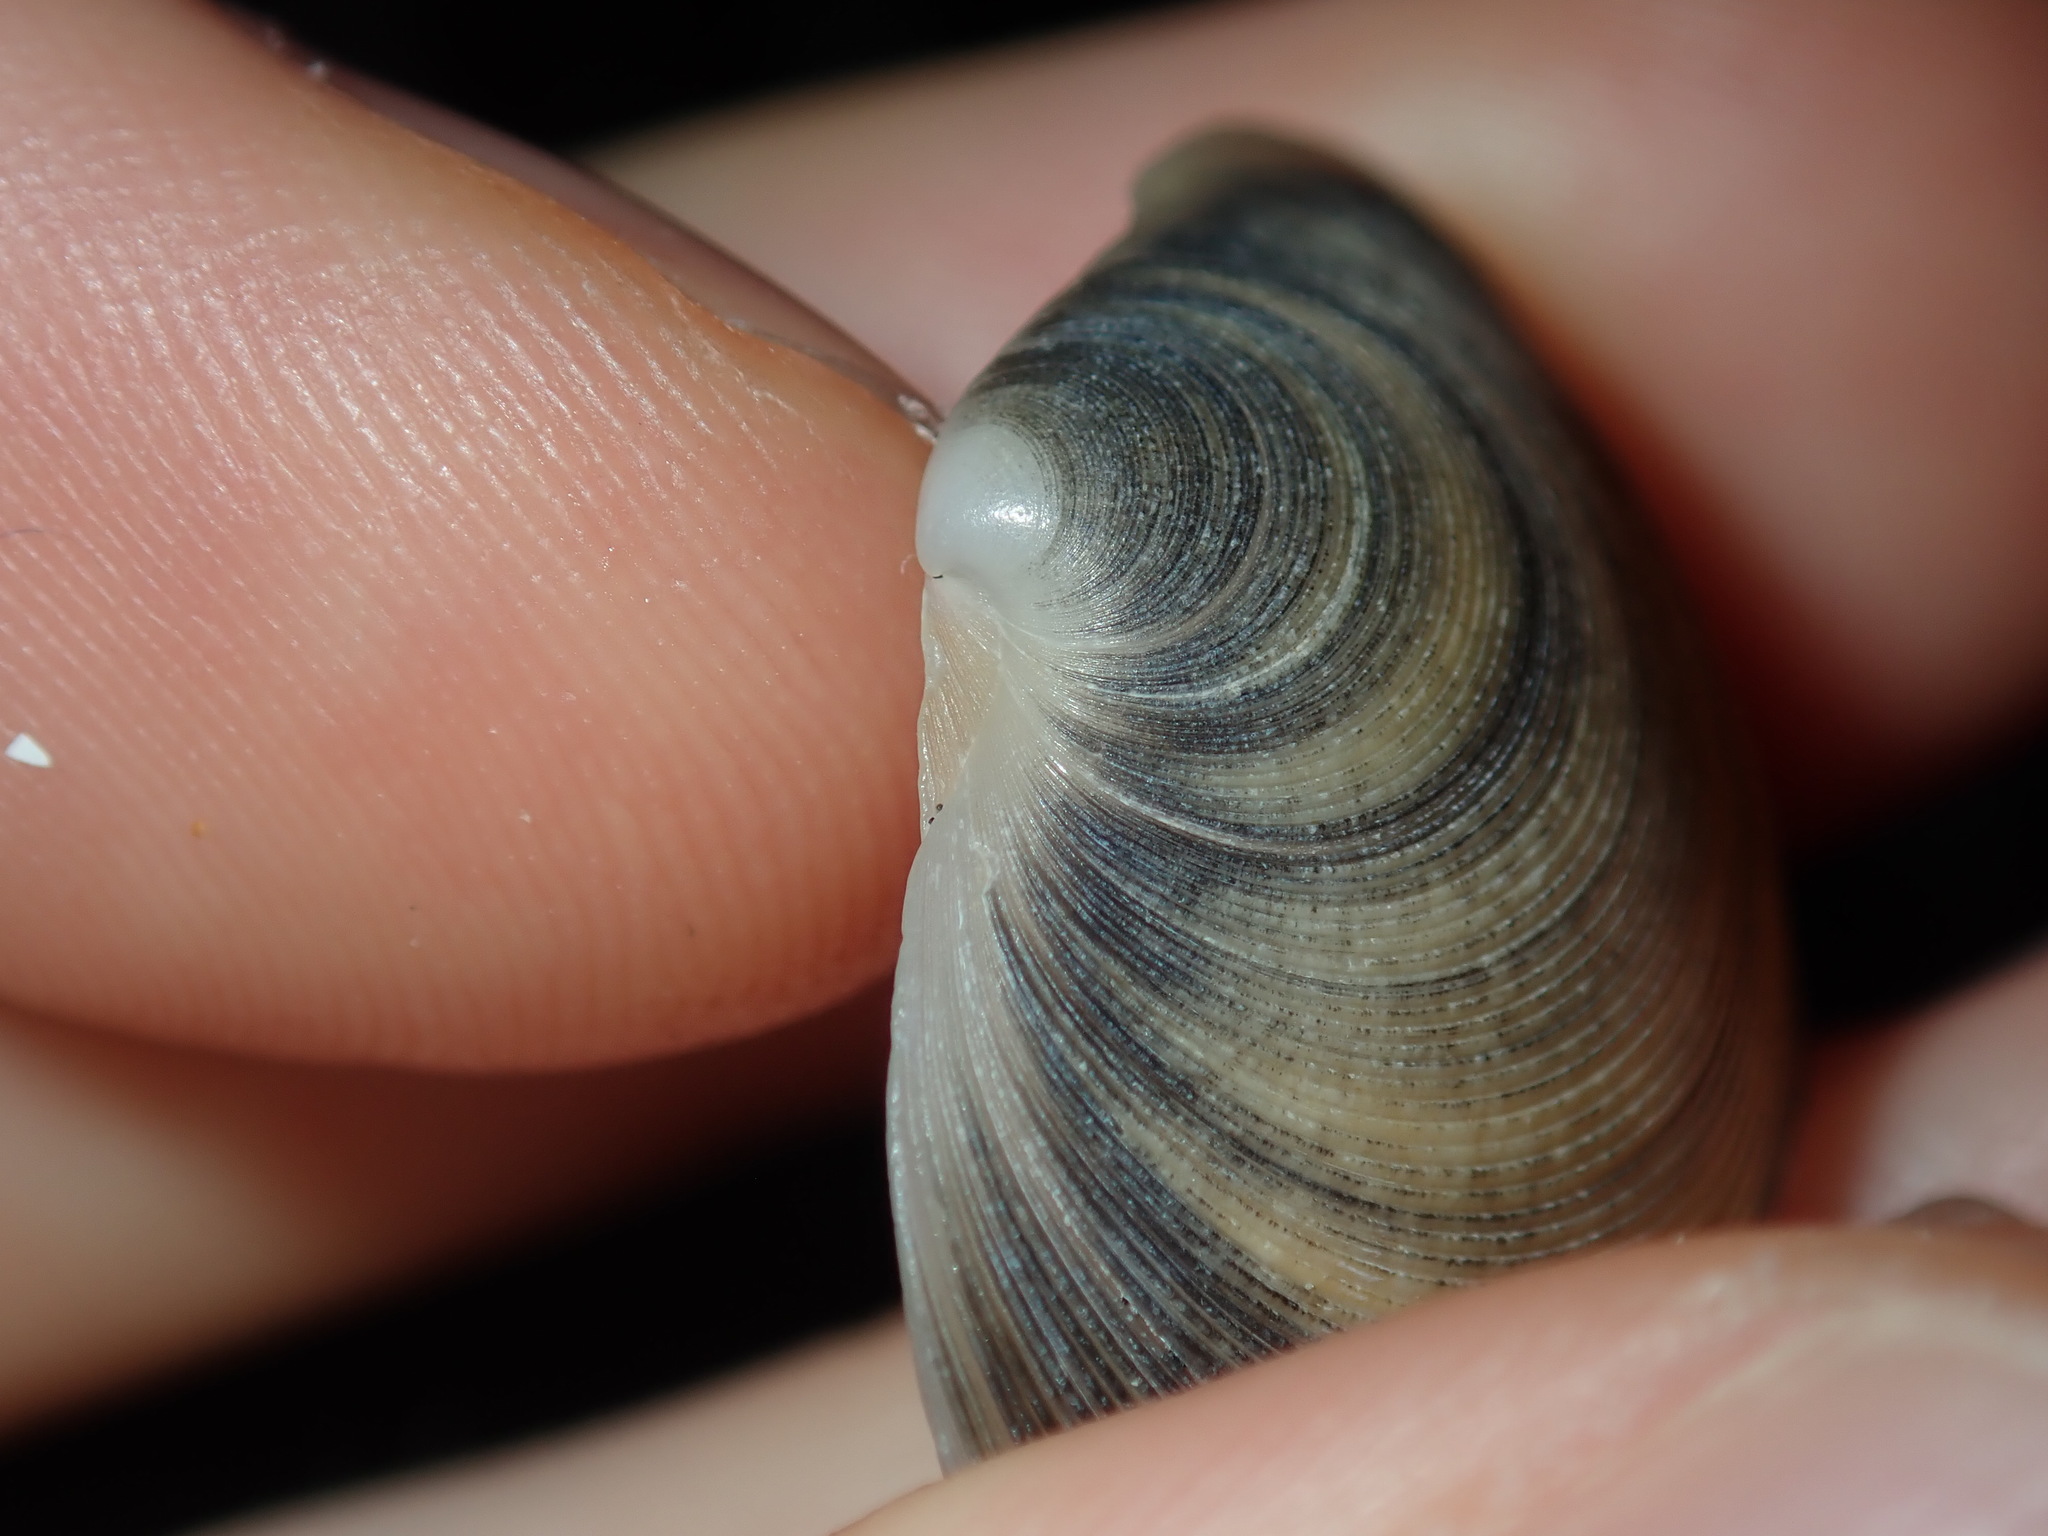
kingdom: Animalia
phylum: Mollusca
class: Bivalvia
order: Venerida
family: Veneridae
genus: Dosinia
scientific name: Dosinia crocea
